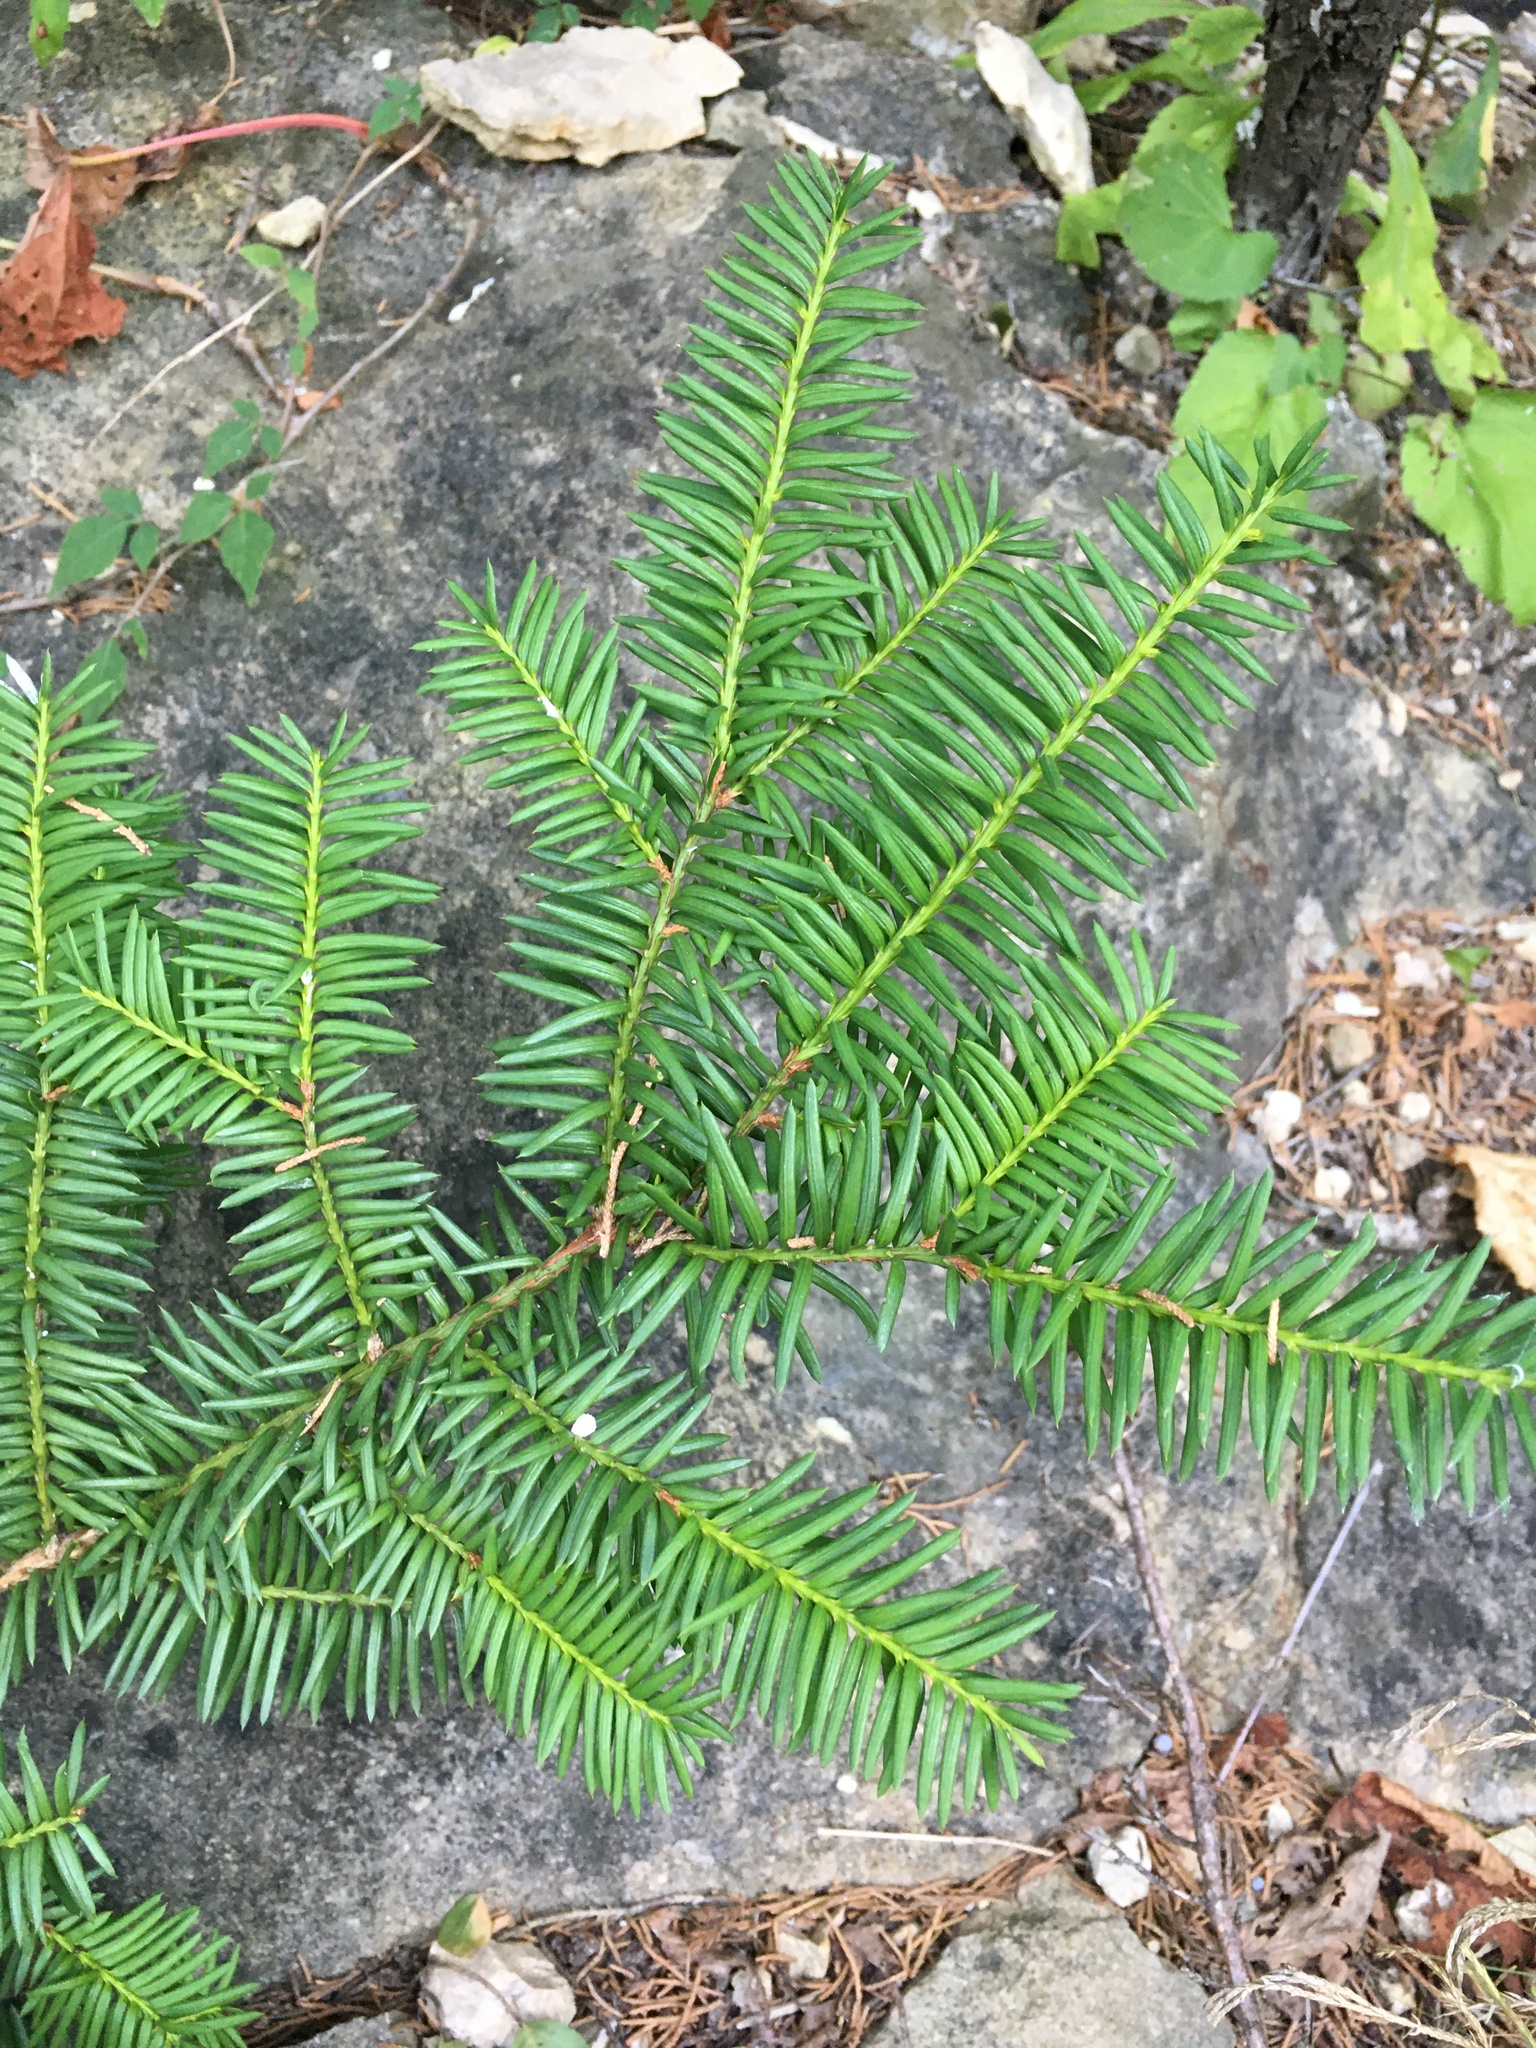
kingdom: Plantae
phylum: Tracheophyta
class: Pinopsida
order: Pinales
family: Taxaceae
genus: Taxus
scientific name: Taxus canadensis
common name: American yew
